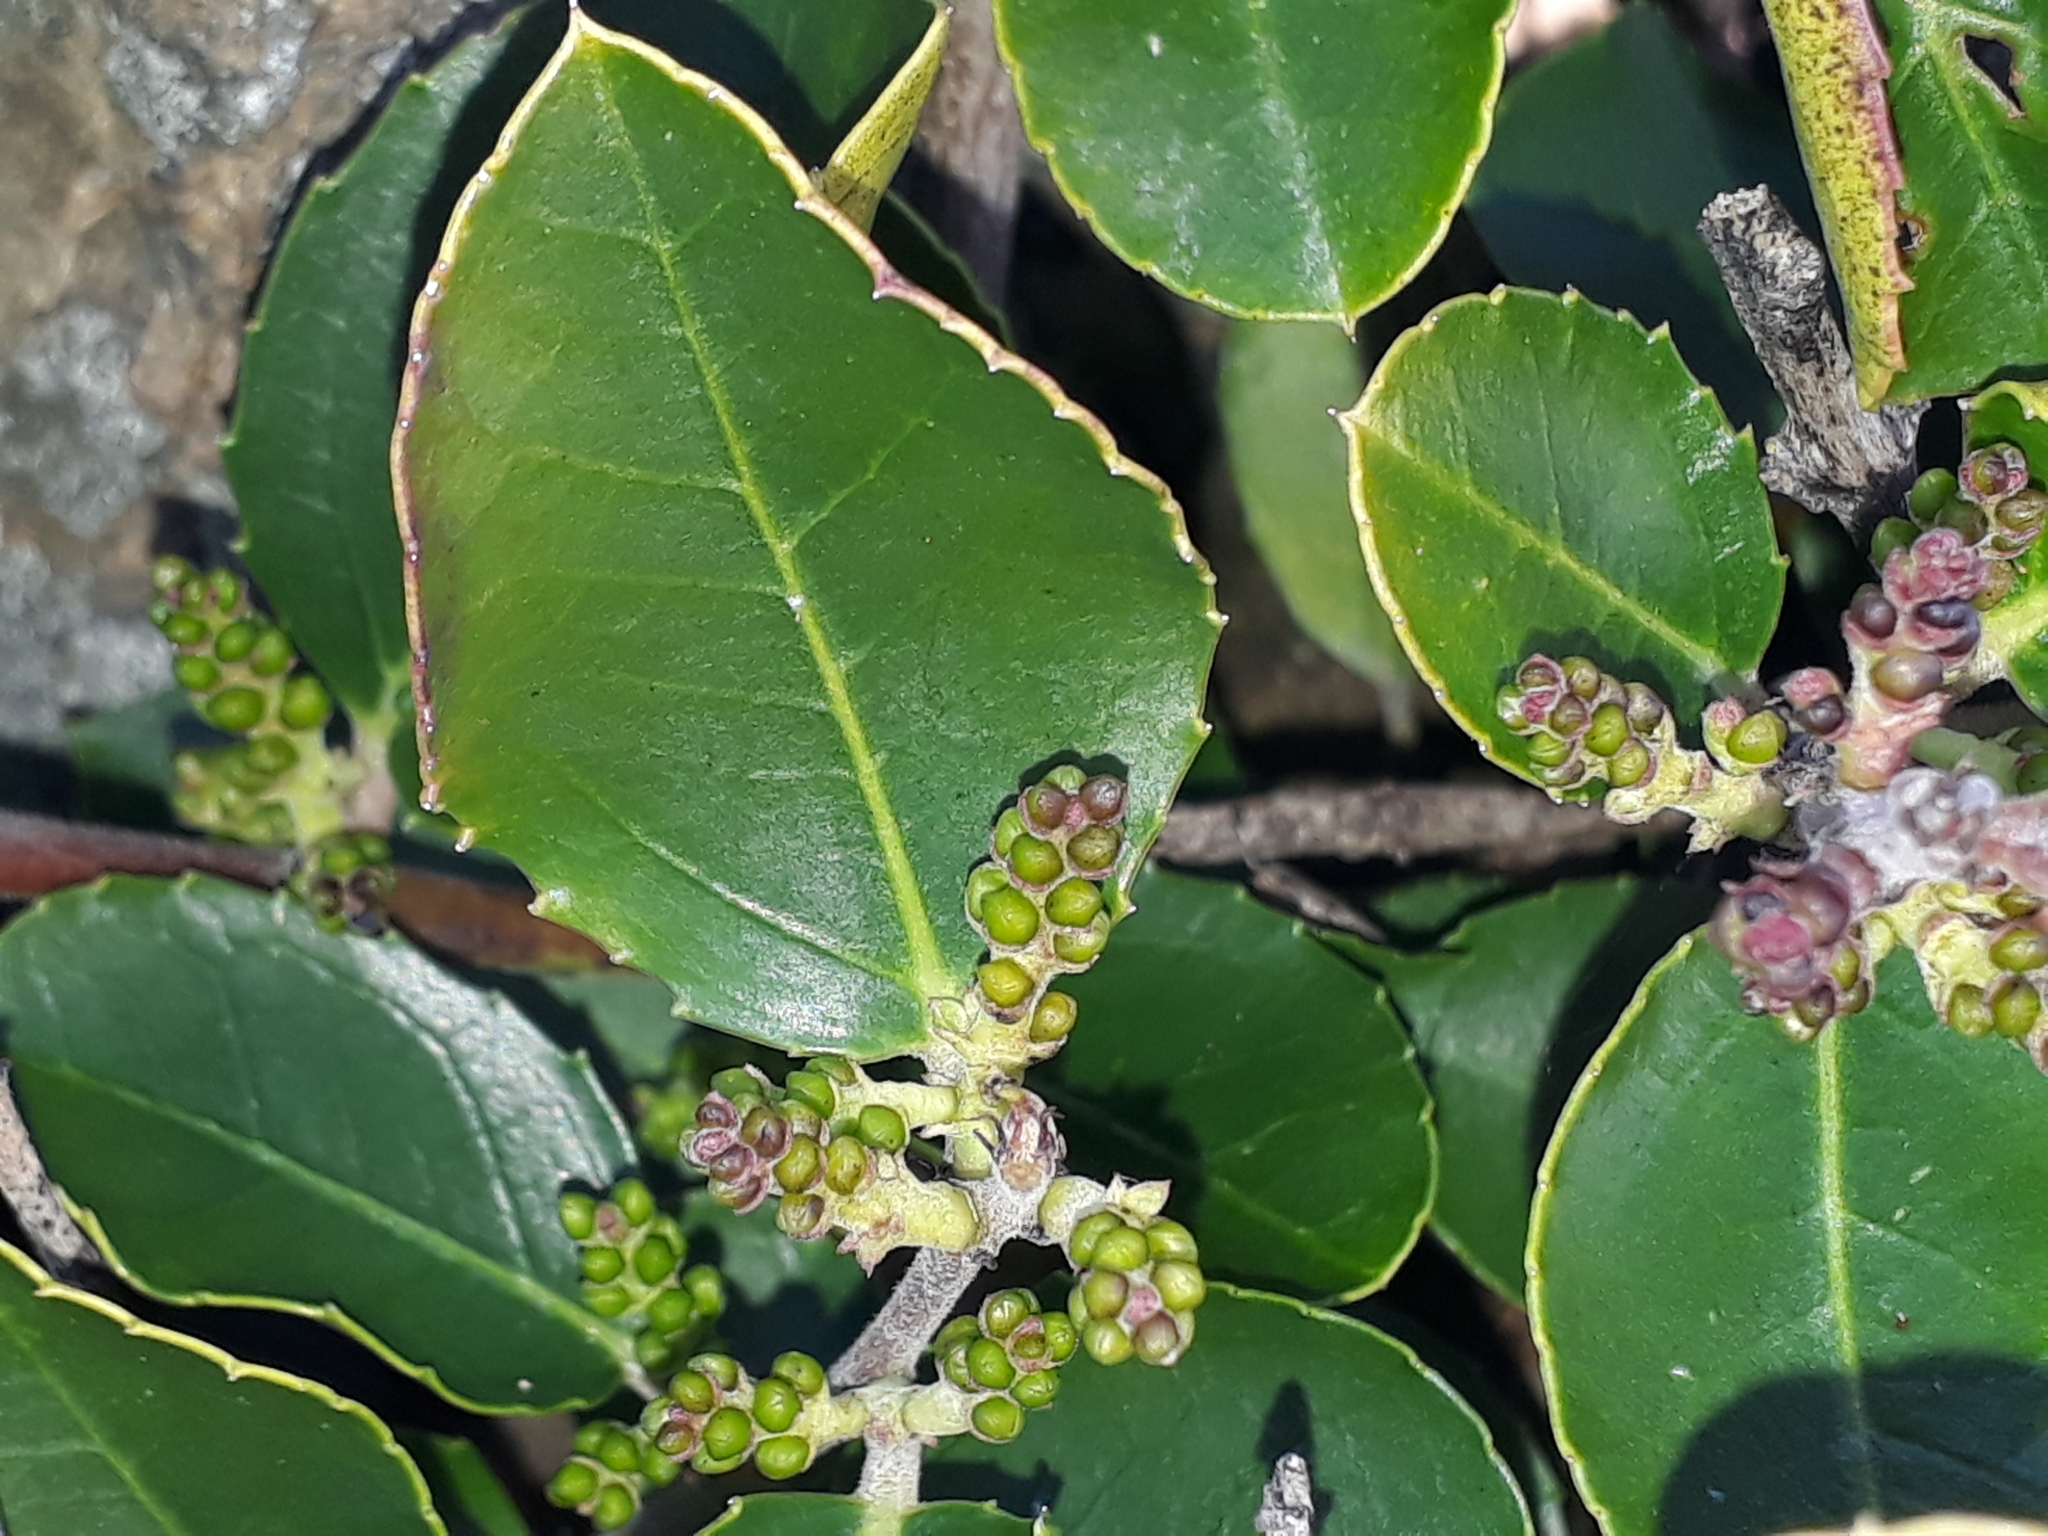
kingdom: Plantae
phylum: Tracheophyta
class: Magnoliopsida
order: Rosales
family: Rhamnaceae
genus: Rhamnus
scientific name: Rhamnus alaternus
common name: Mediterranean buckthorn
